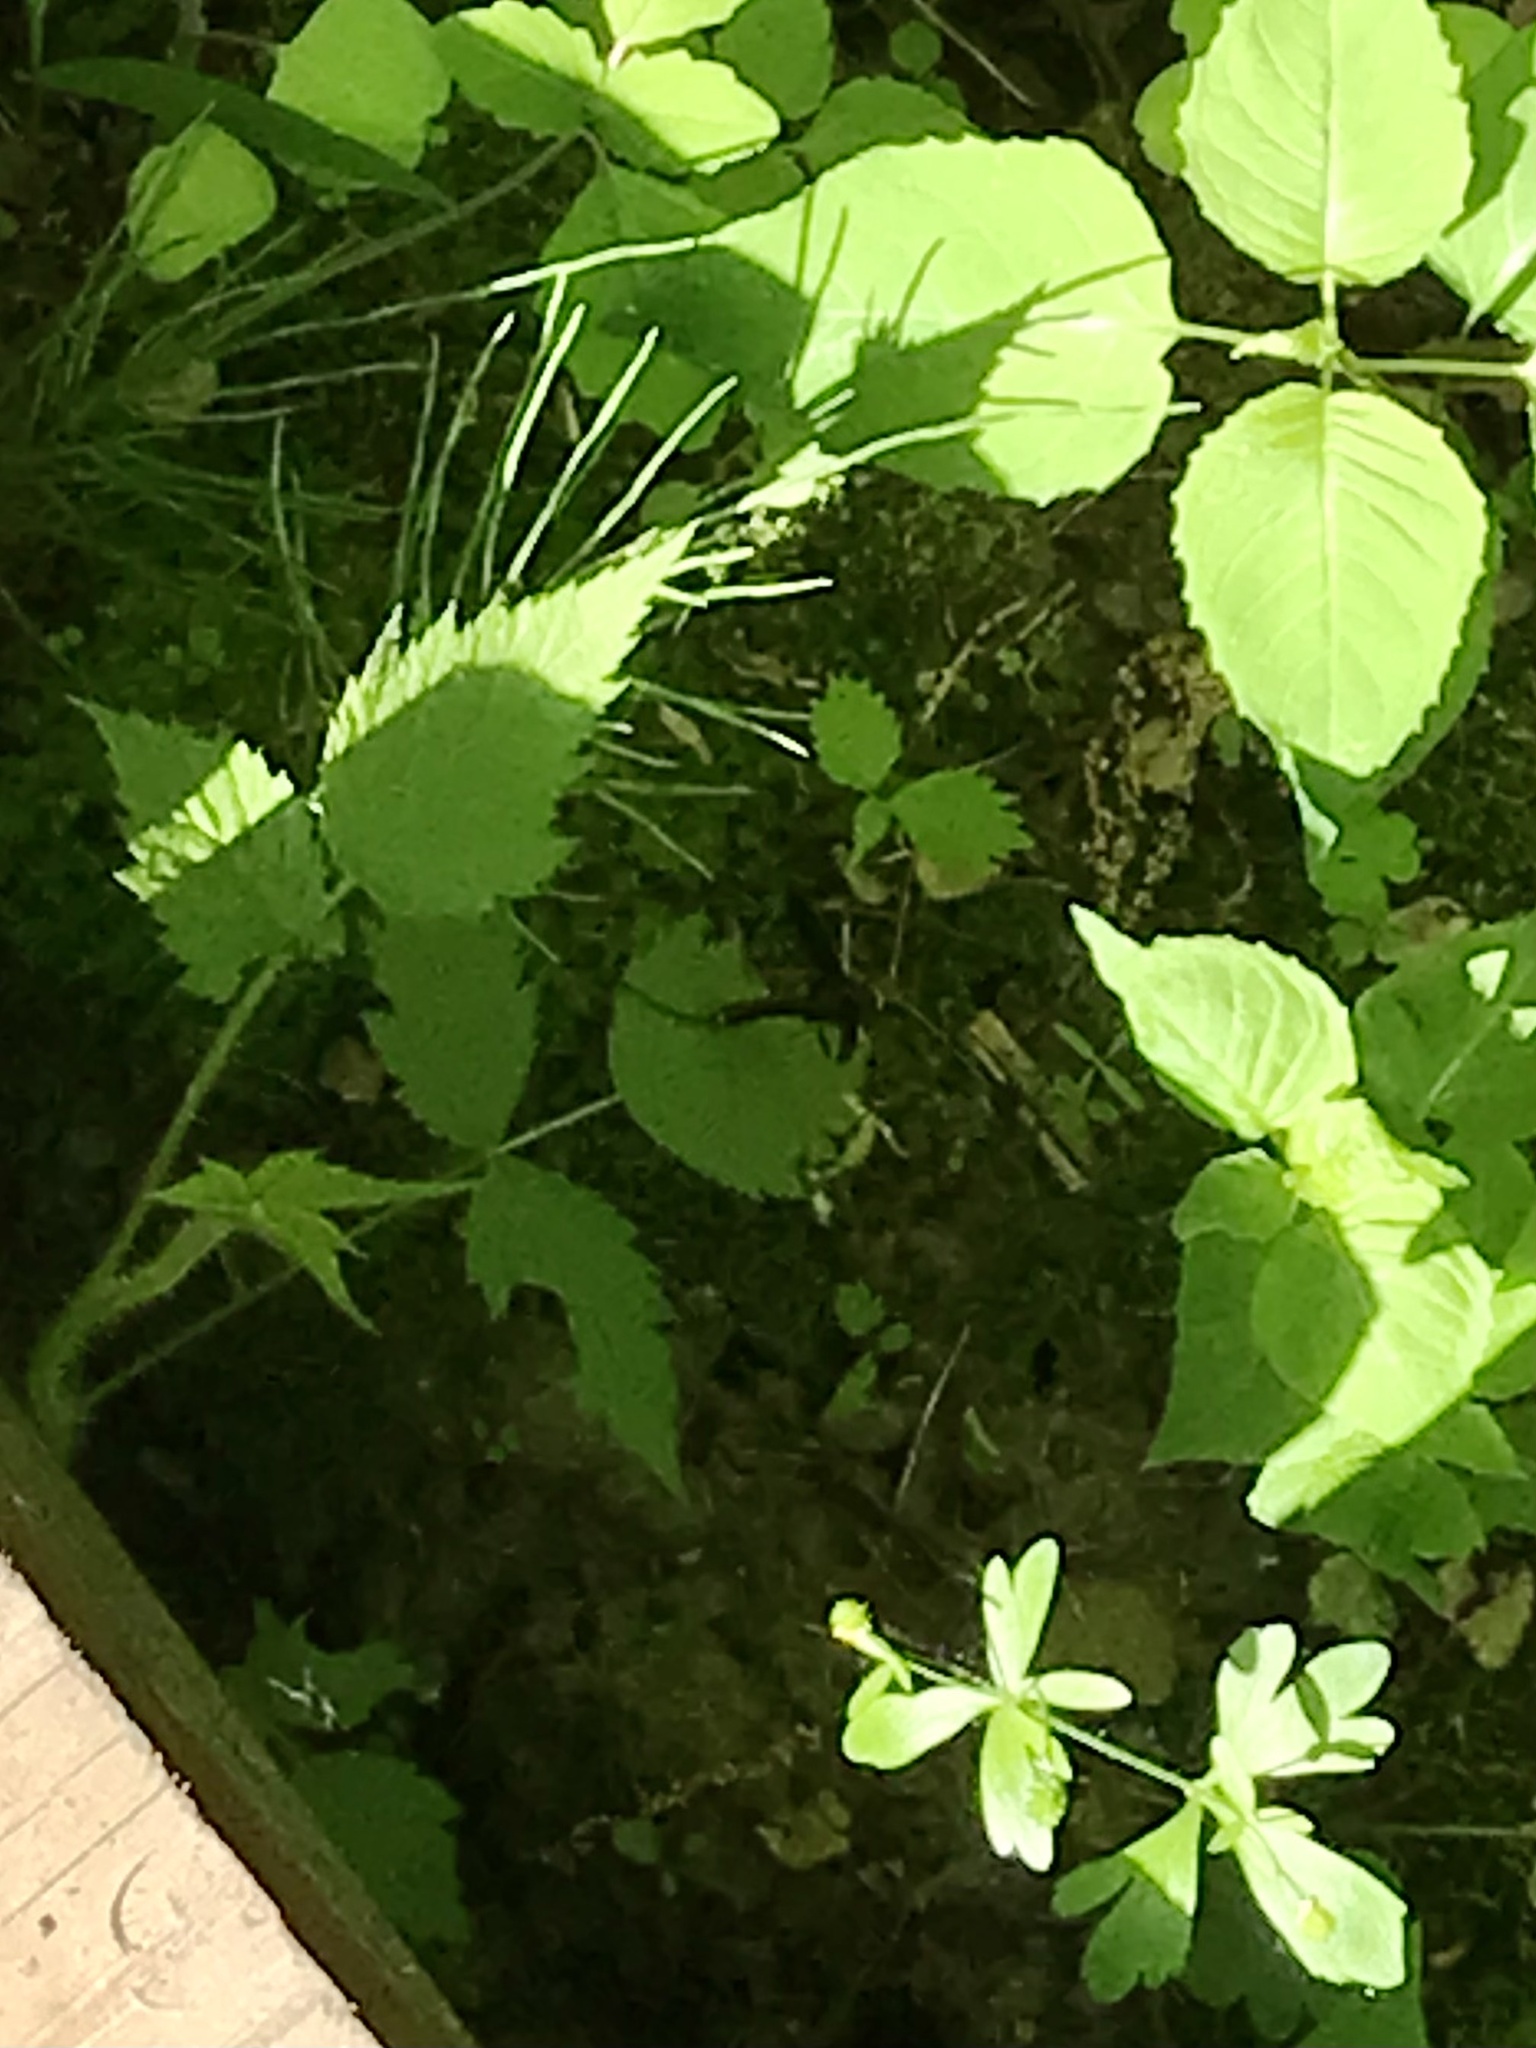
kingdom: Animalia
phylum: Arthropoda
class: Insecta
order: Hymenoptera
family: Ichneumonidae
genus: Megarhyssa
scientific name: Megarhyssa atrata
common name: Black giant ichneumonid wasp
